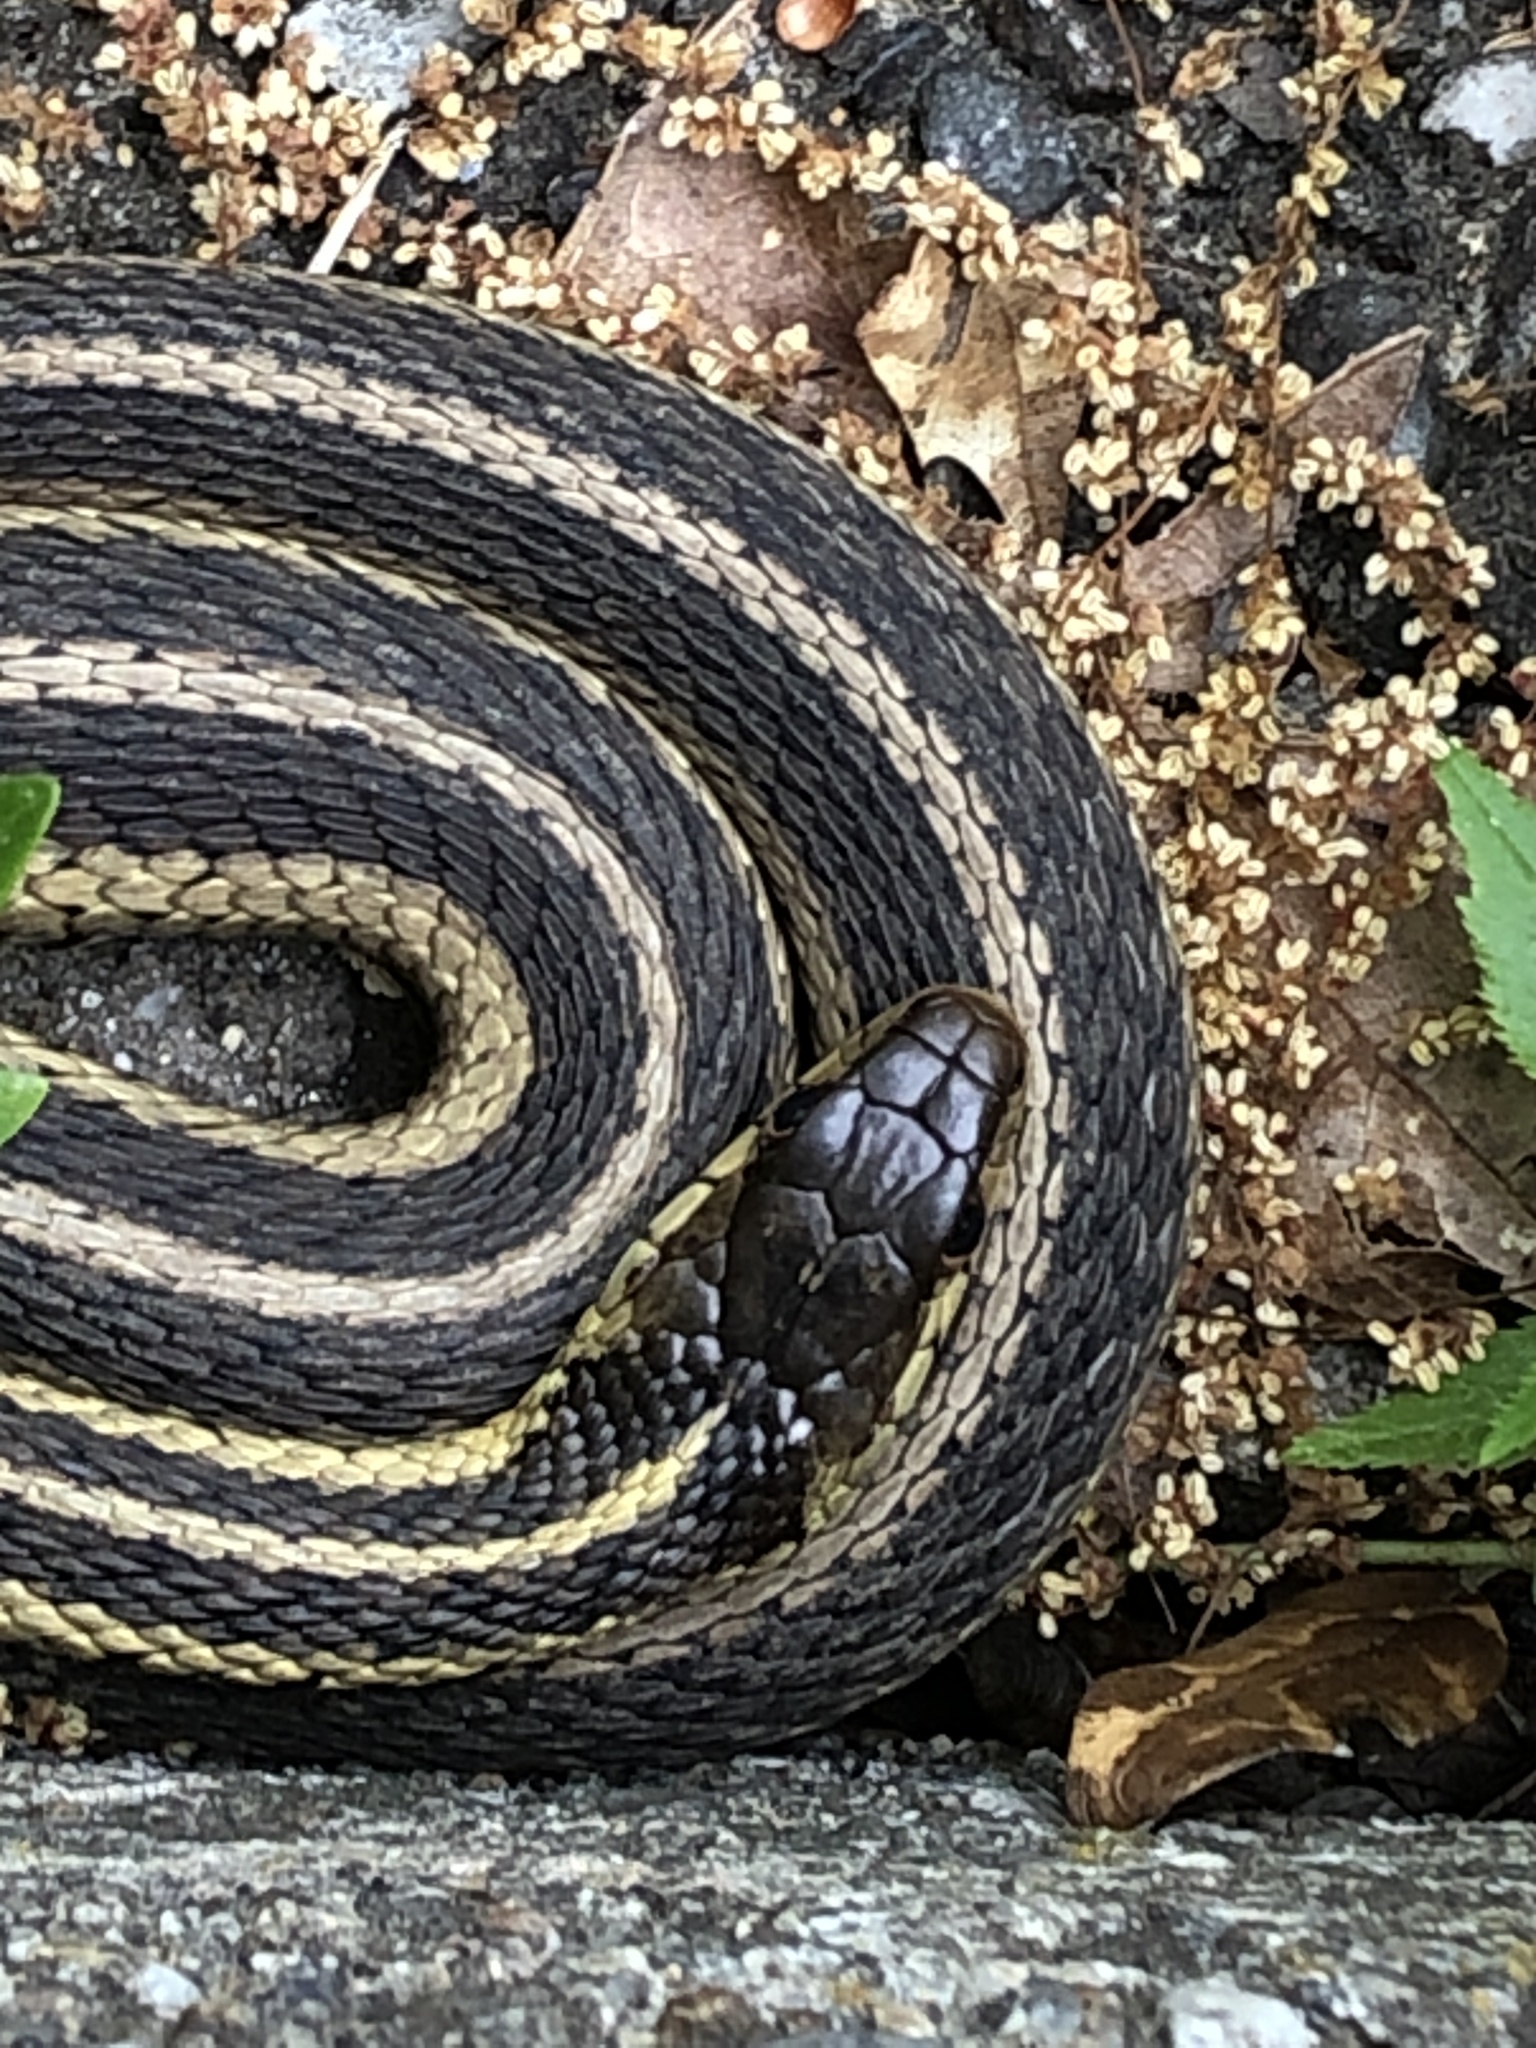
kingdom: Animalia
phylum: Chordata
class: Squamata
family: Colubridae
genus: Thamnophis
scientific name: Thamnophis sirtalis
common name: Common garter snake
